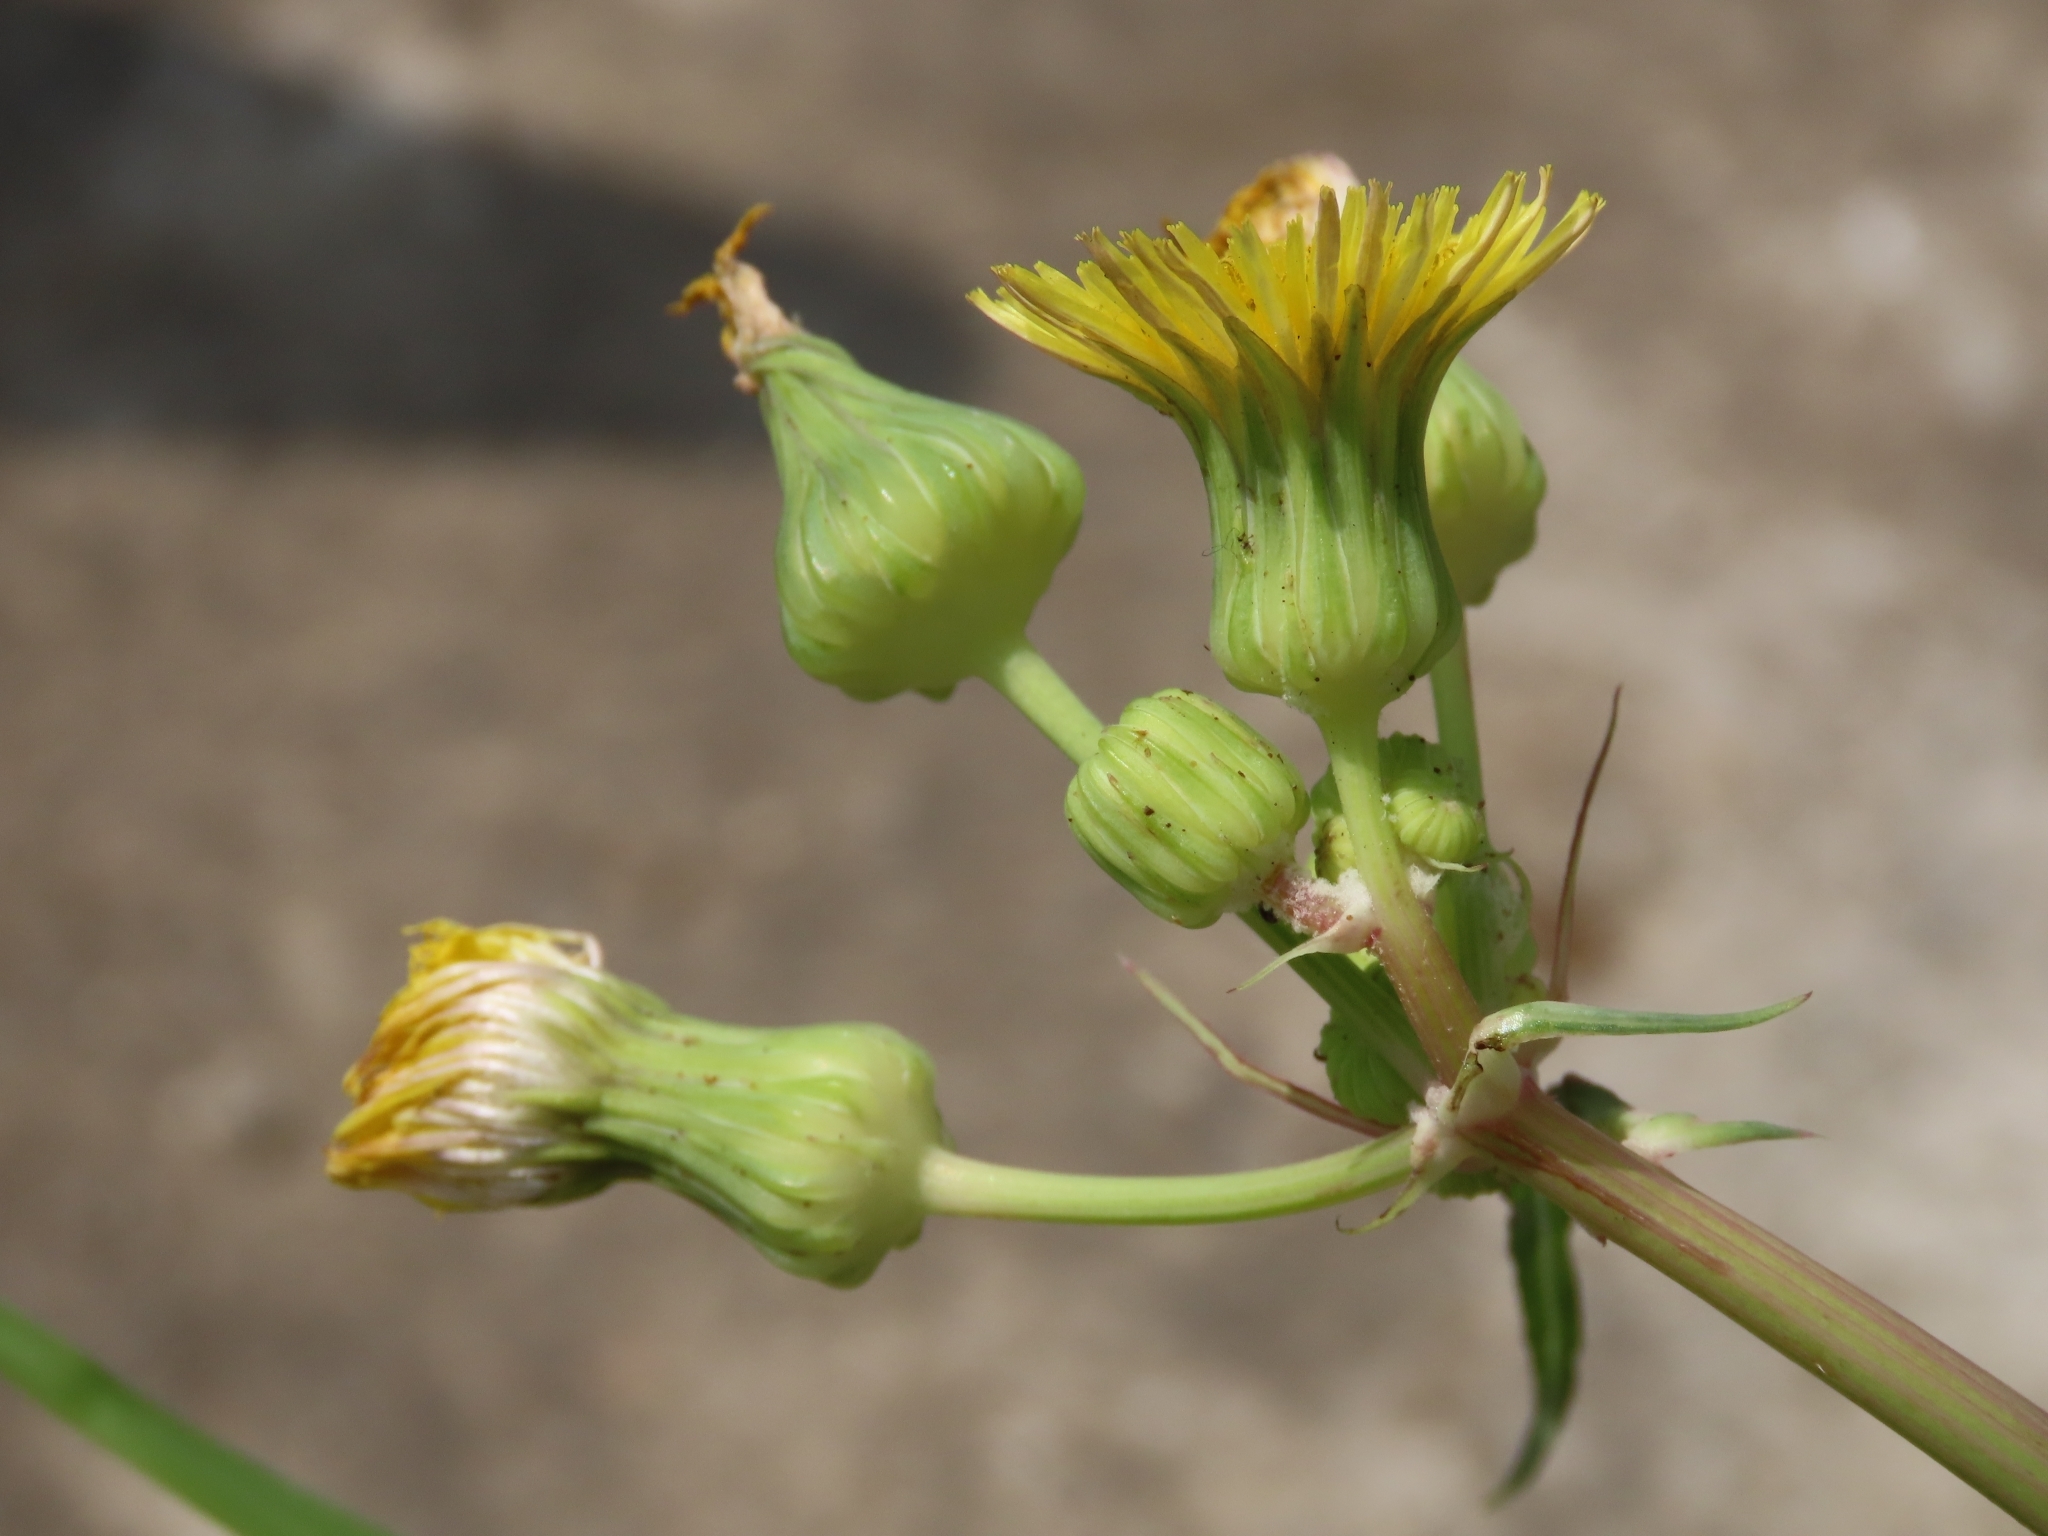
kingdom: Plantae
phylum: Tracheophyta
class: Magnoliopsida
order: Asterales
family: Asteraceae
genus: Sonchus
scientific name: Sonchus oleraceus
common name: Common sowthistle
